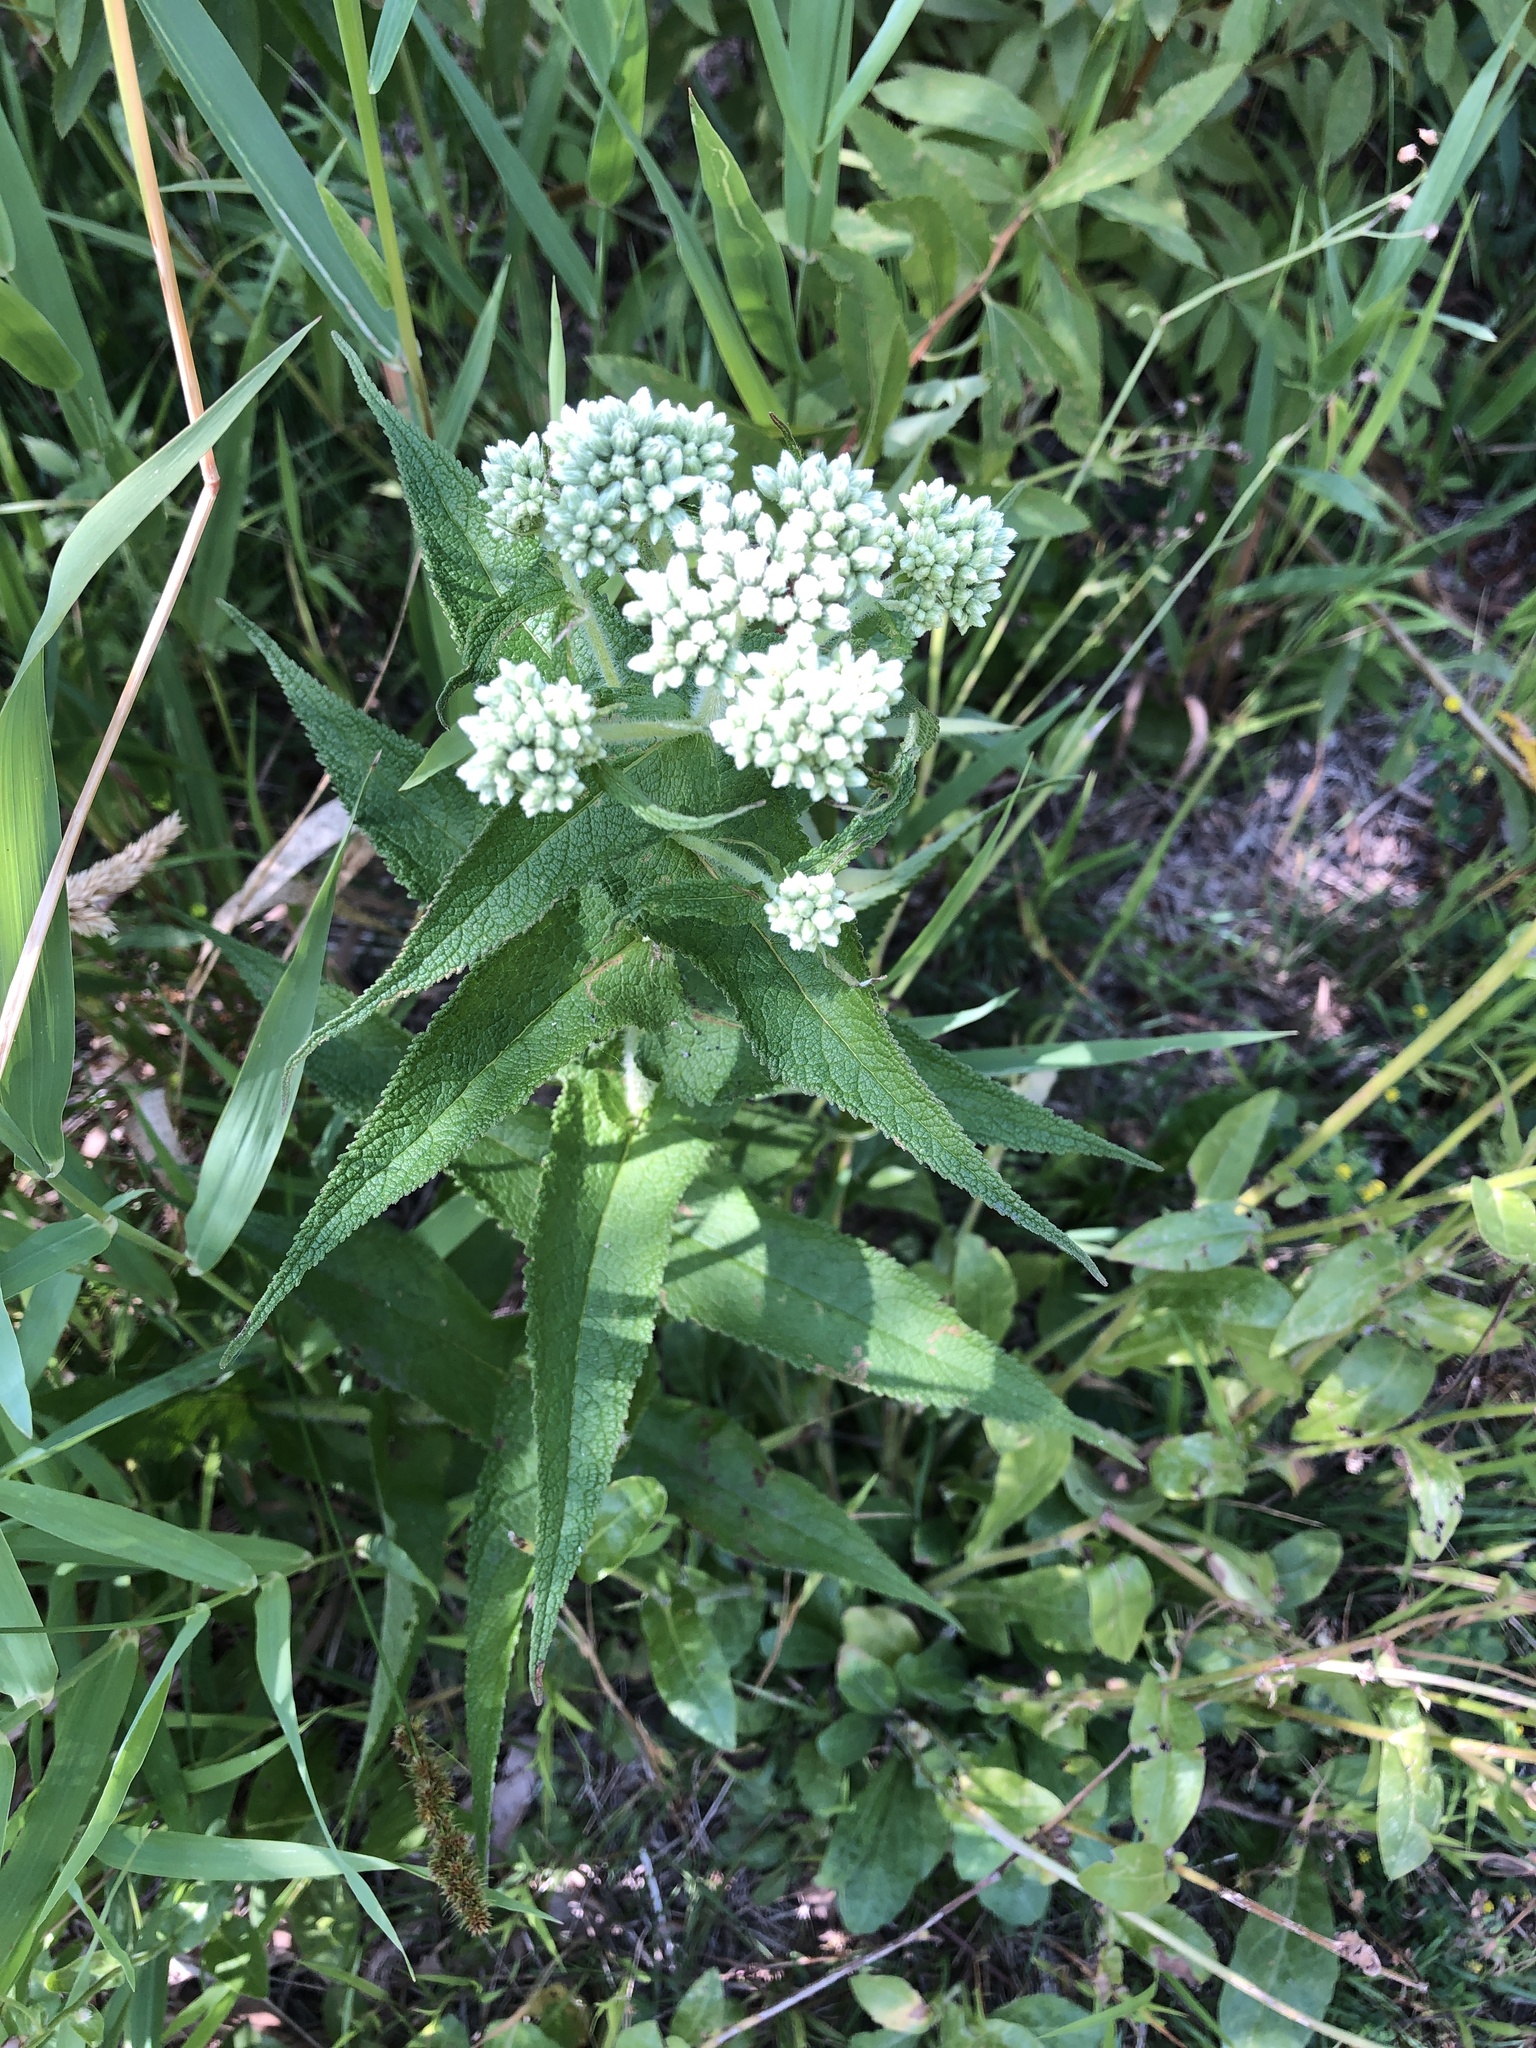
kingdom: Plantae
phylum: Tracheophyta
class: Magnoliopsida
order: Asterales
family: Asteraceae
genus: Eupatorium
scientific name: Eupatorium perfoliatum
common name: Boneset
